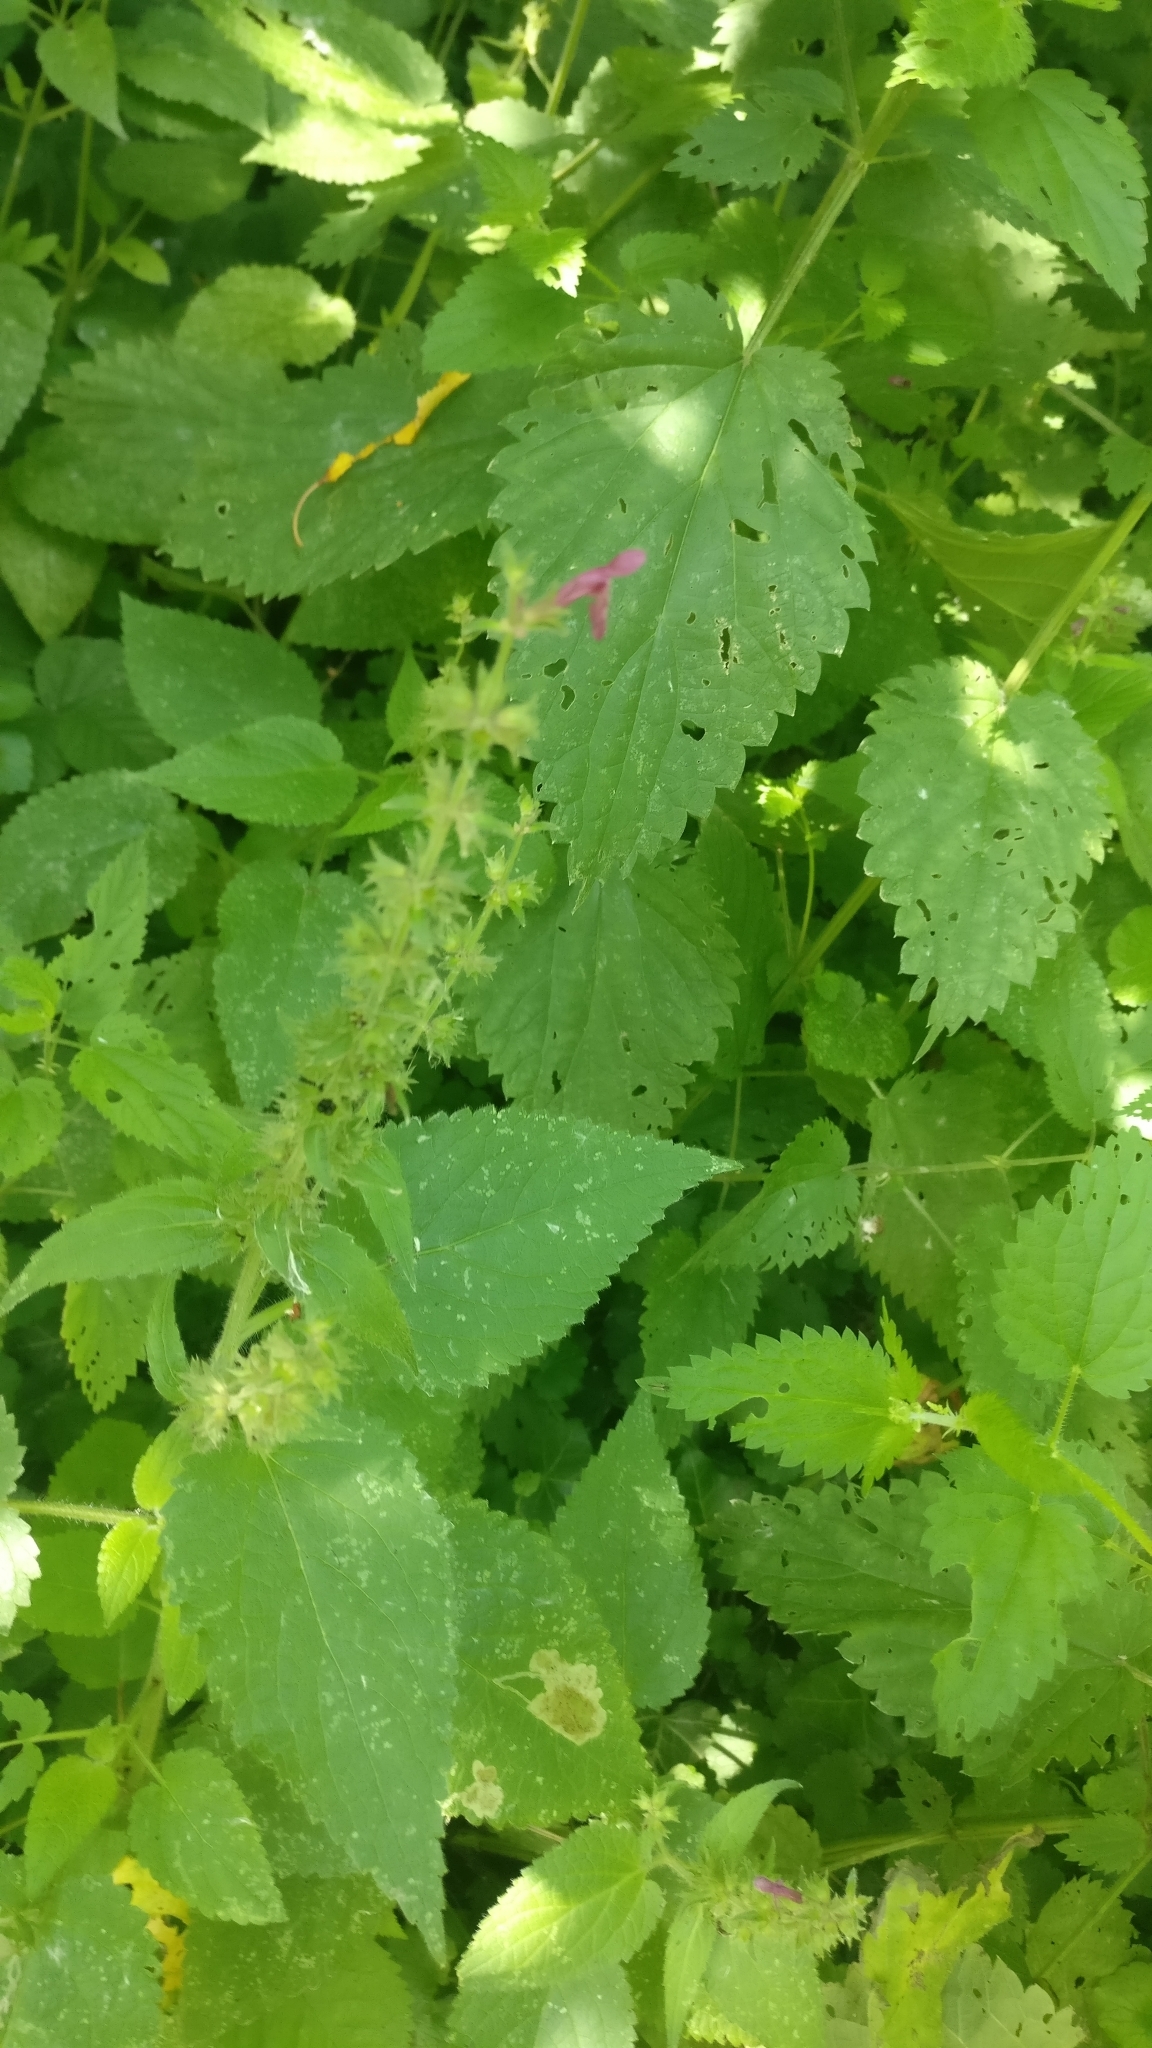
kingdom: Plantae
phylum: Tracheophyta
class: Magnoliopsida
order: Lamiales
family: Lamiaceae
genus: Stachys
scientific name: Stachys sylvatica
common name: Hedge woundwort
